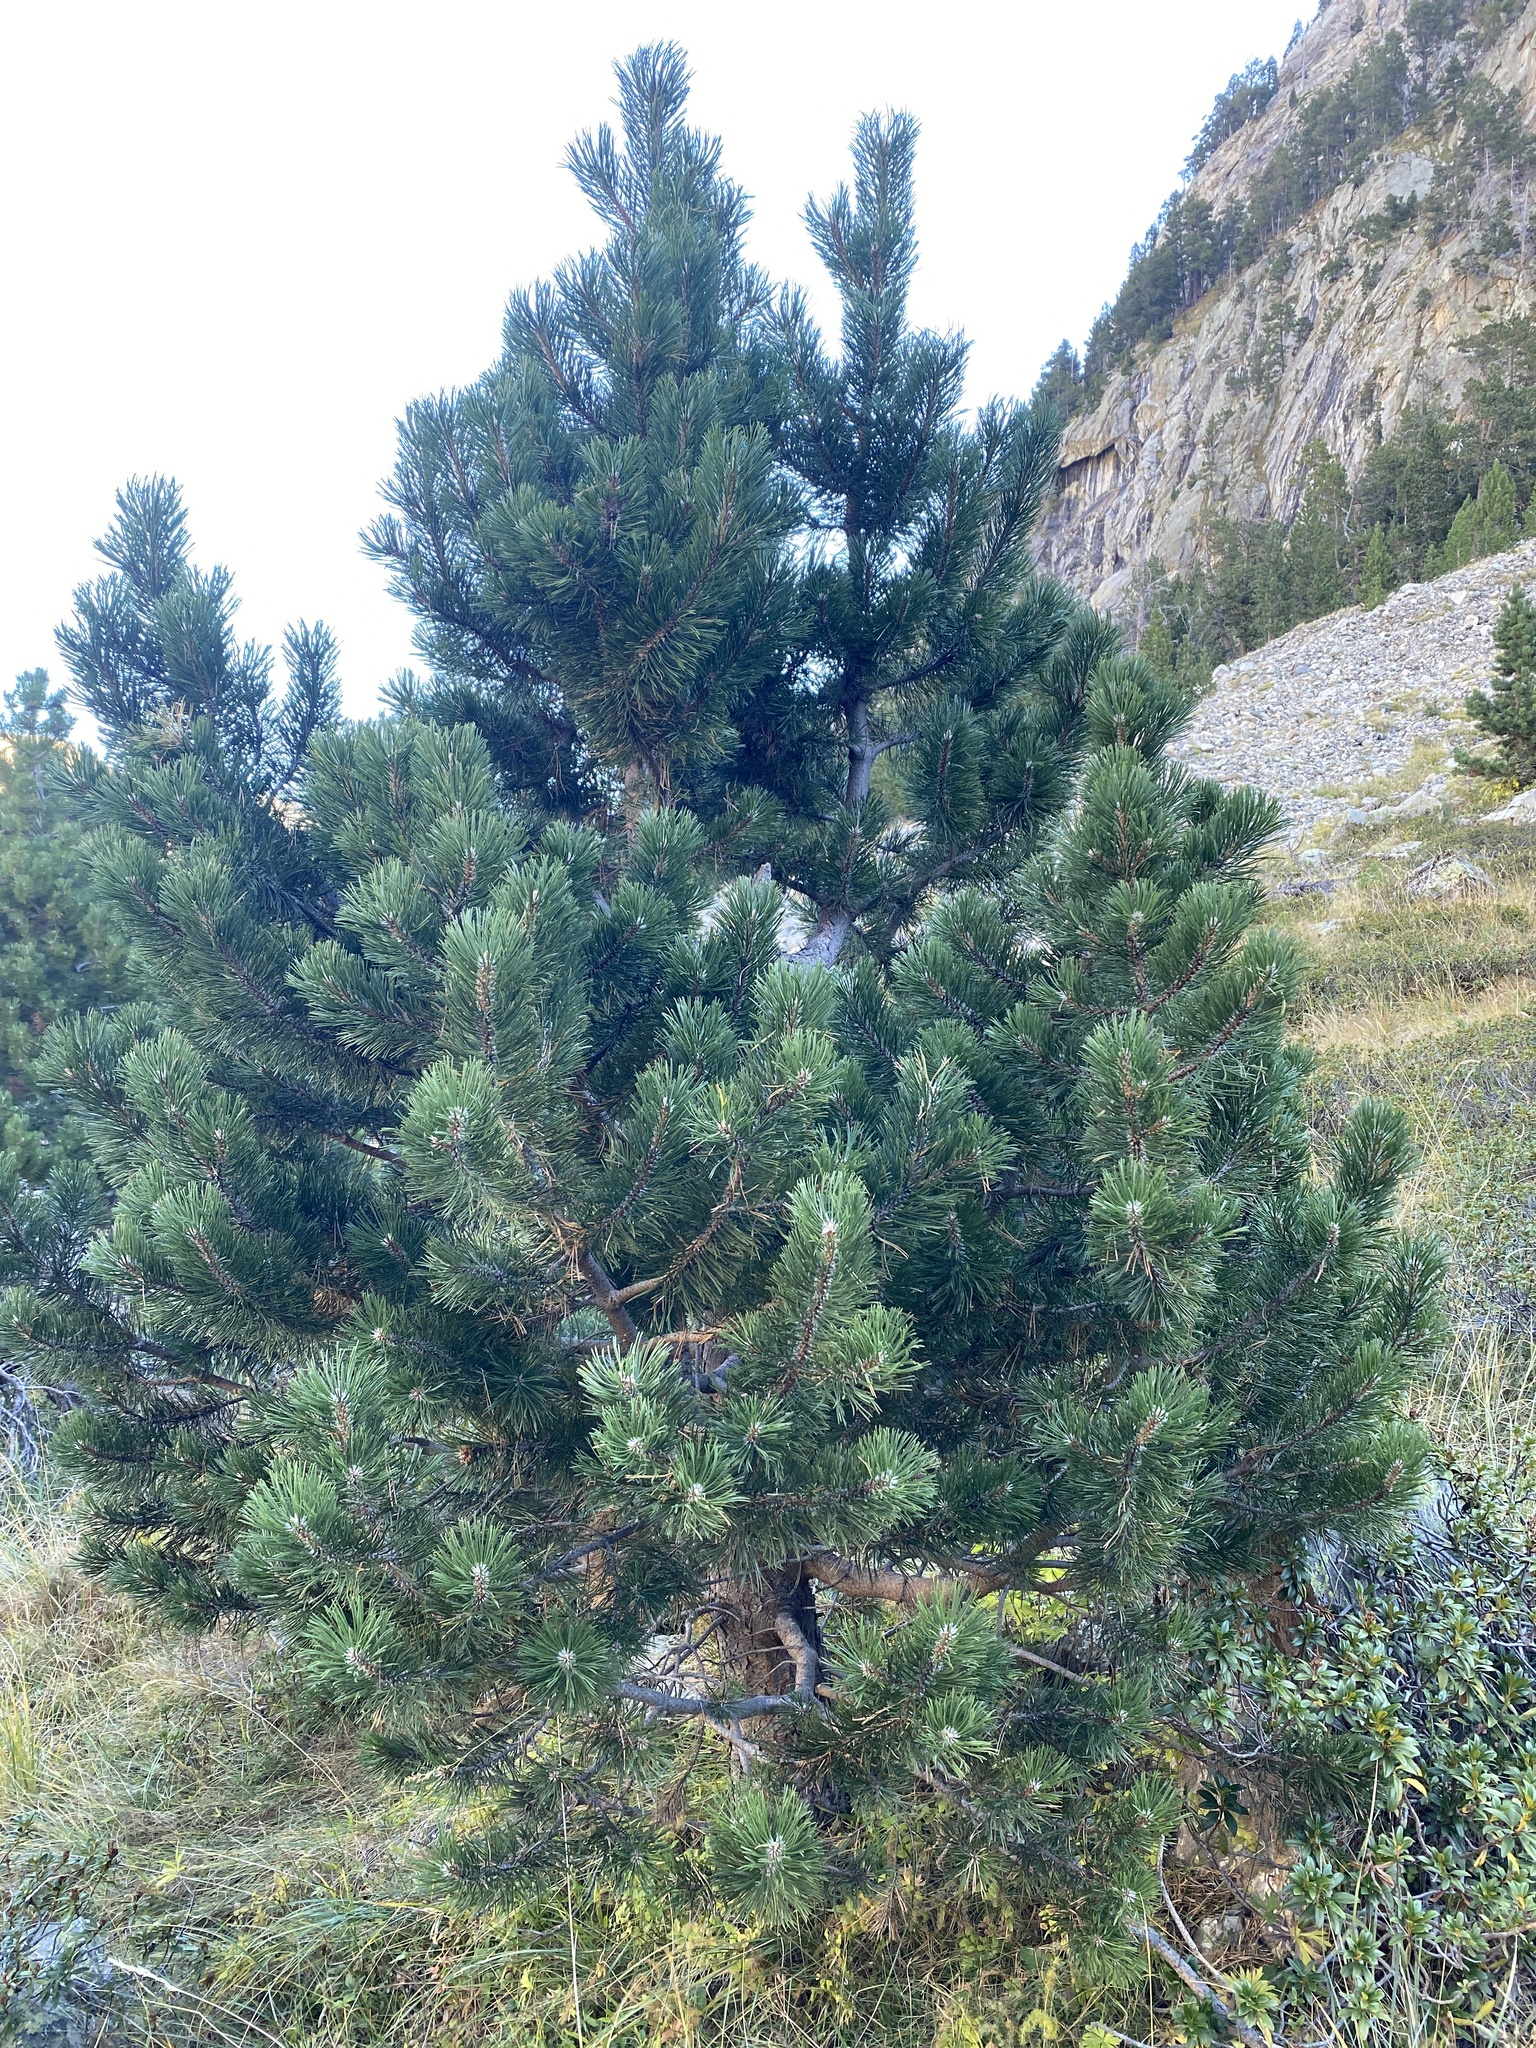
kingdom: Plantae
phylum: Tracheophyta
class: Pinopsida
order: Pinales
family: Pinaceae
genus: Pinus
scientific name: Pinus uncinata
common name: Mountain pine
